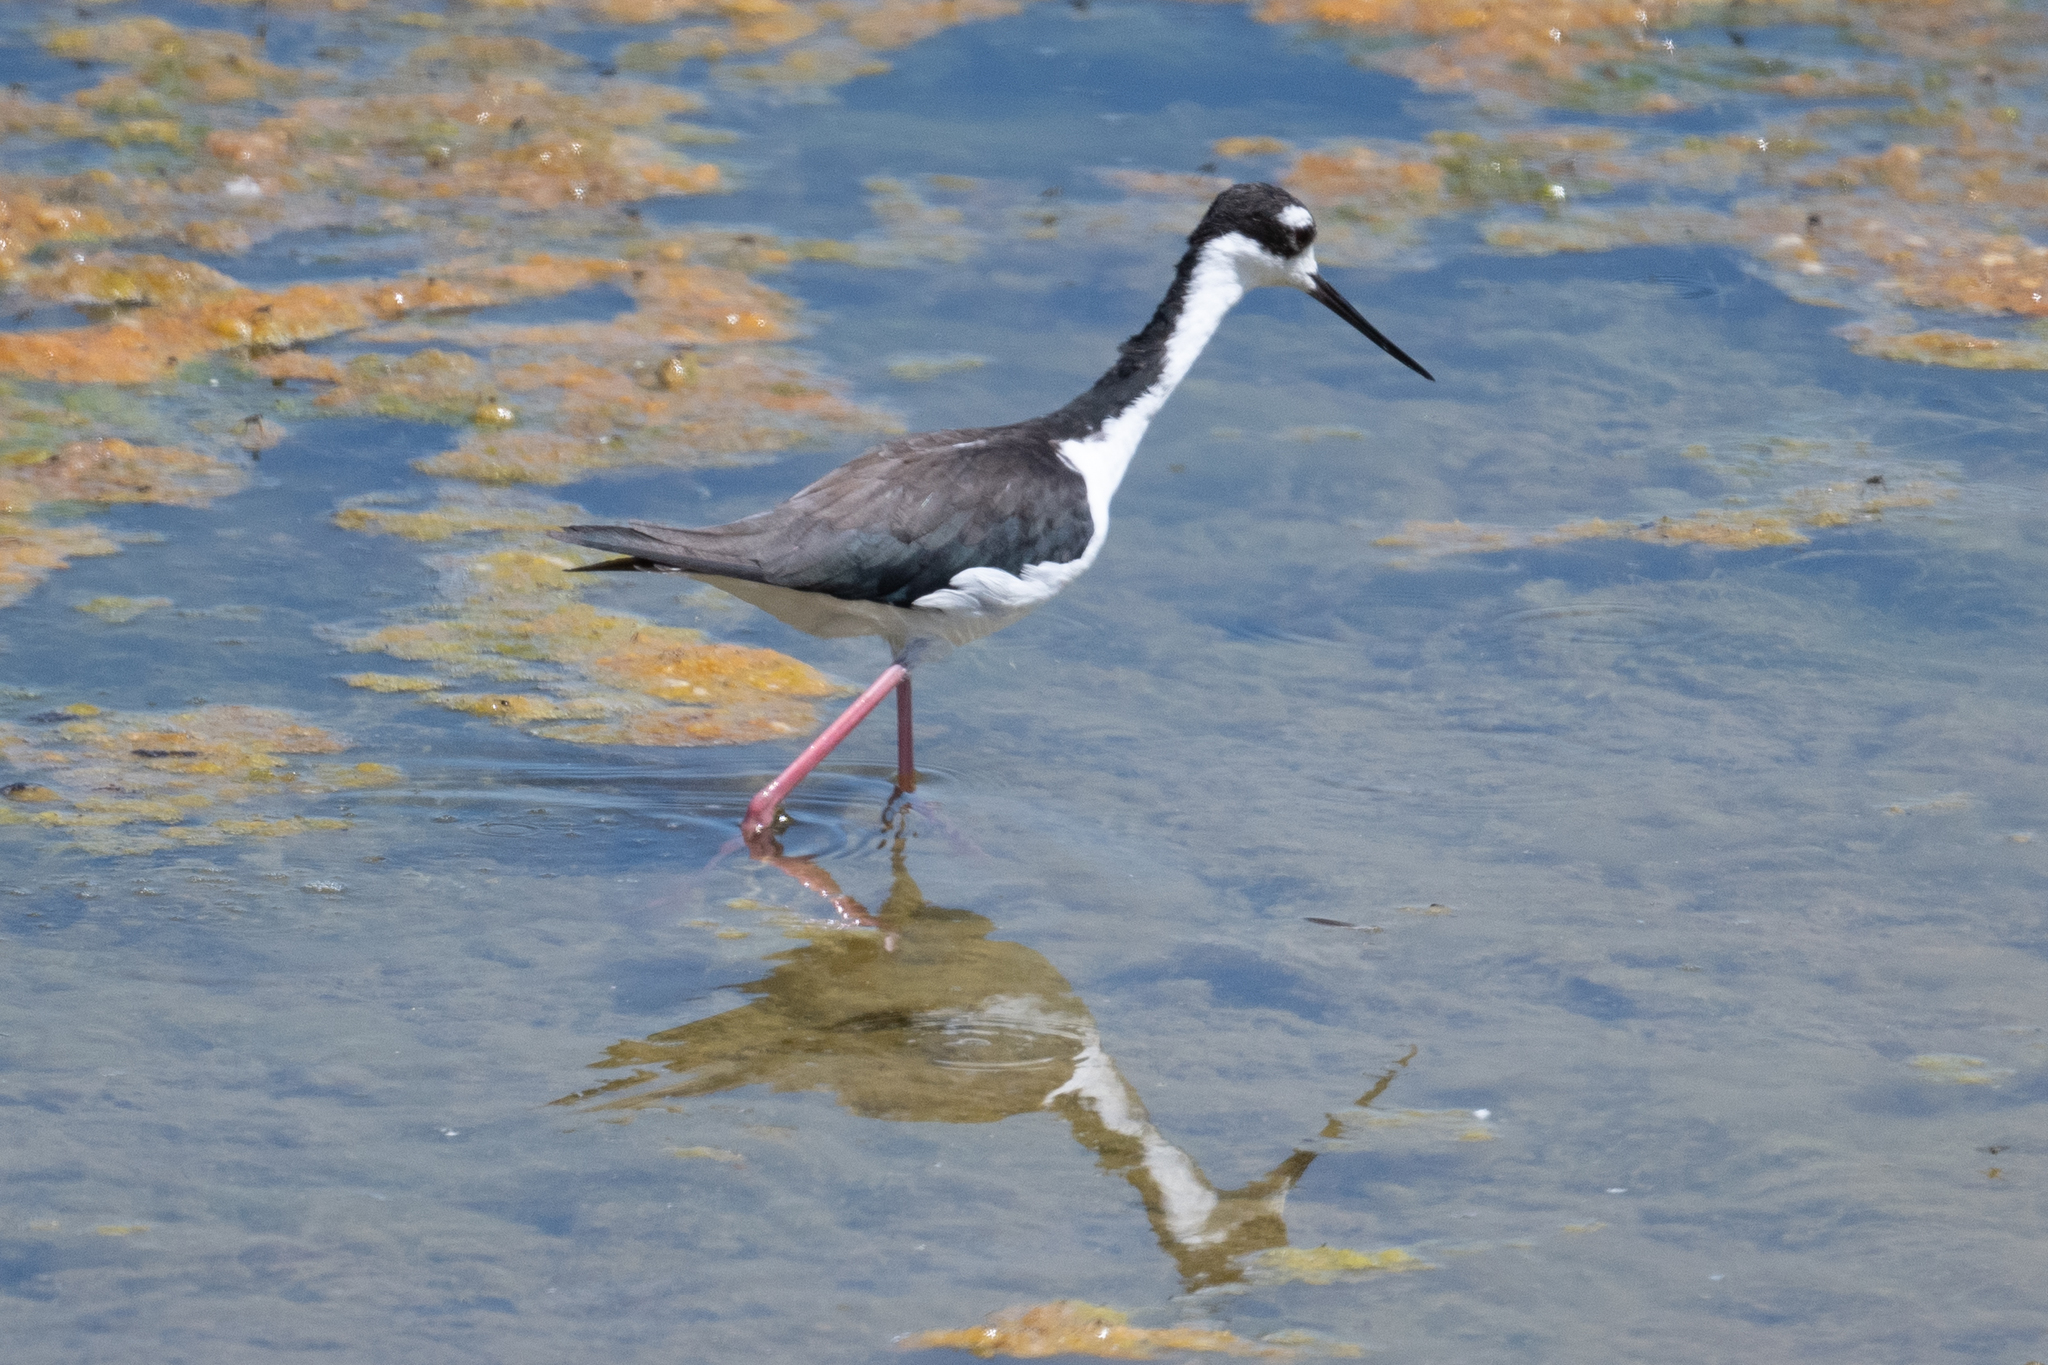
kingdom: Animalia
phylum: Chordata
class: Aves
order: Charadriiformes
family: Recurvirostridae
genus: Himantopus
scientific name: Himantopus mexicanus
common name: Black-necked stilt
